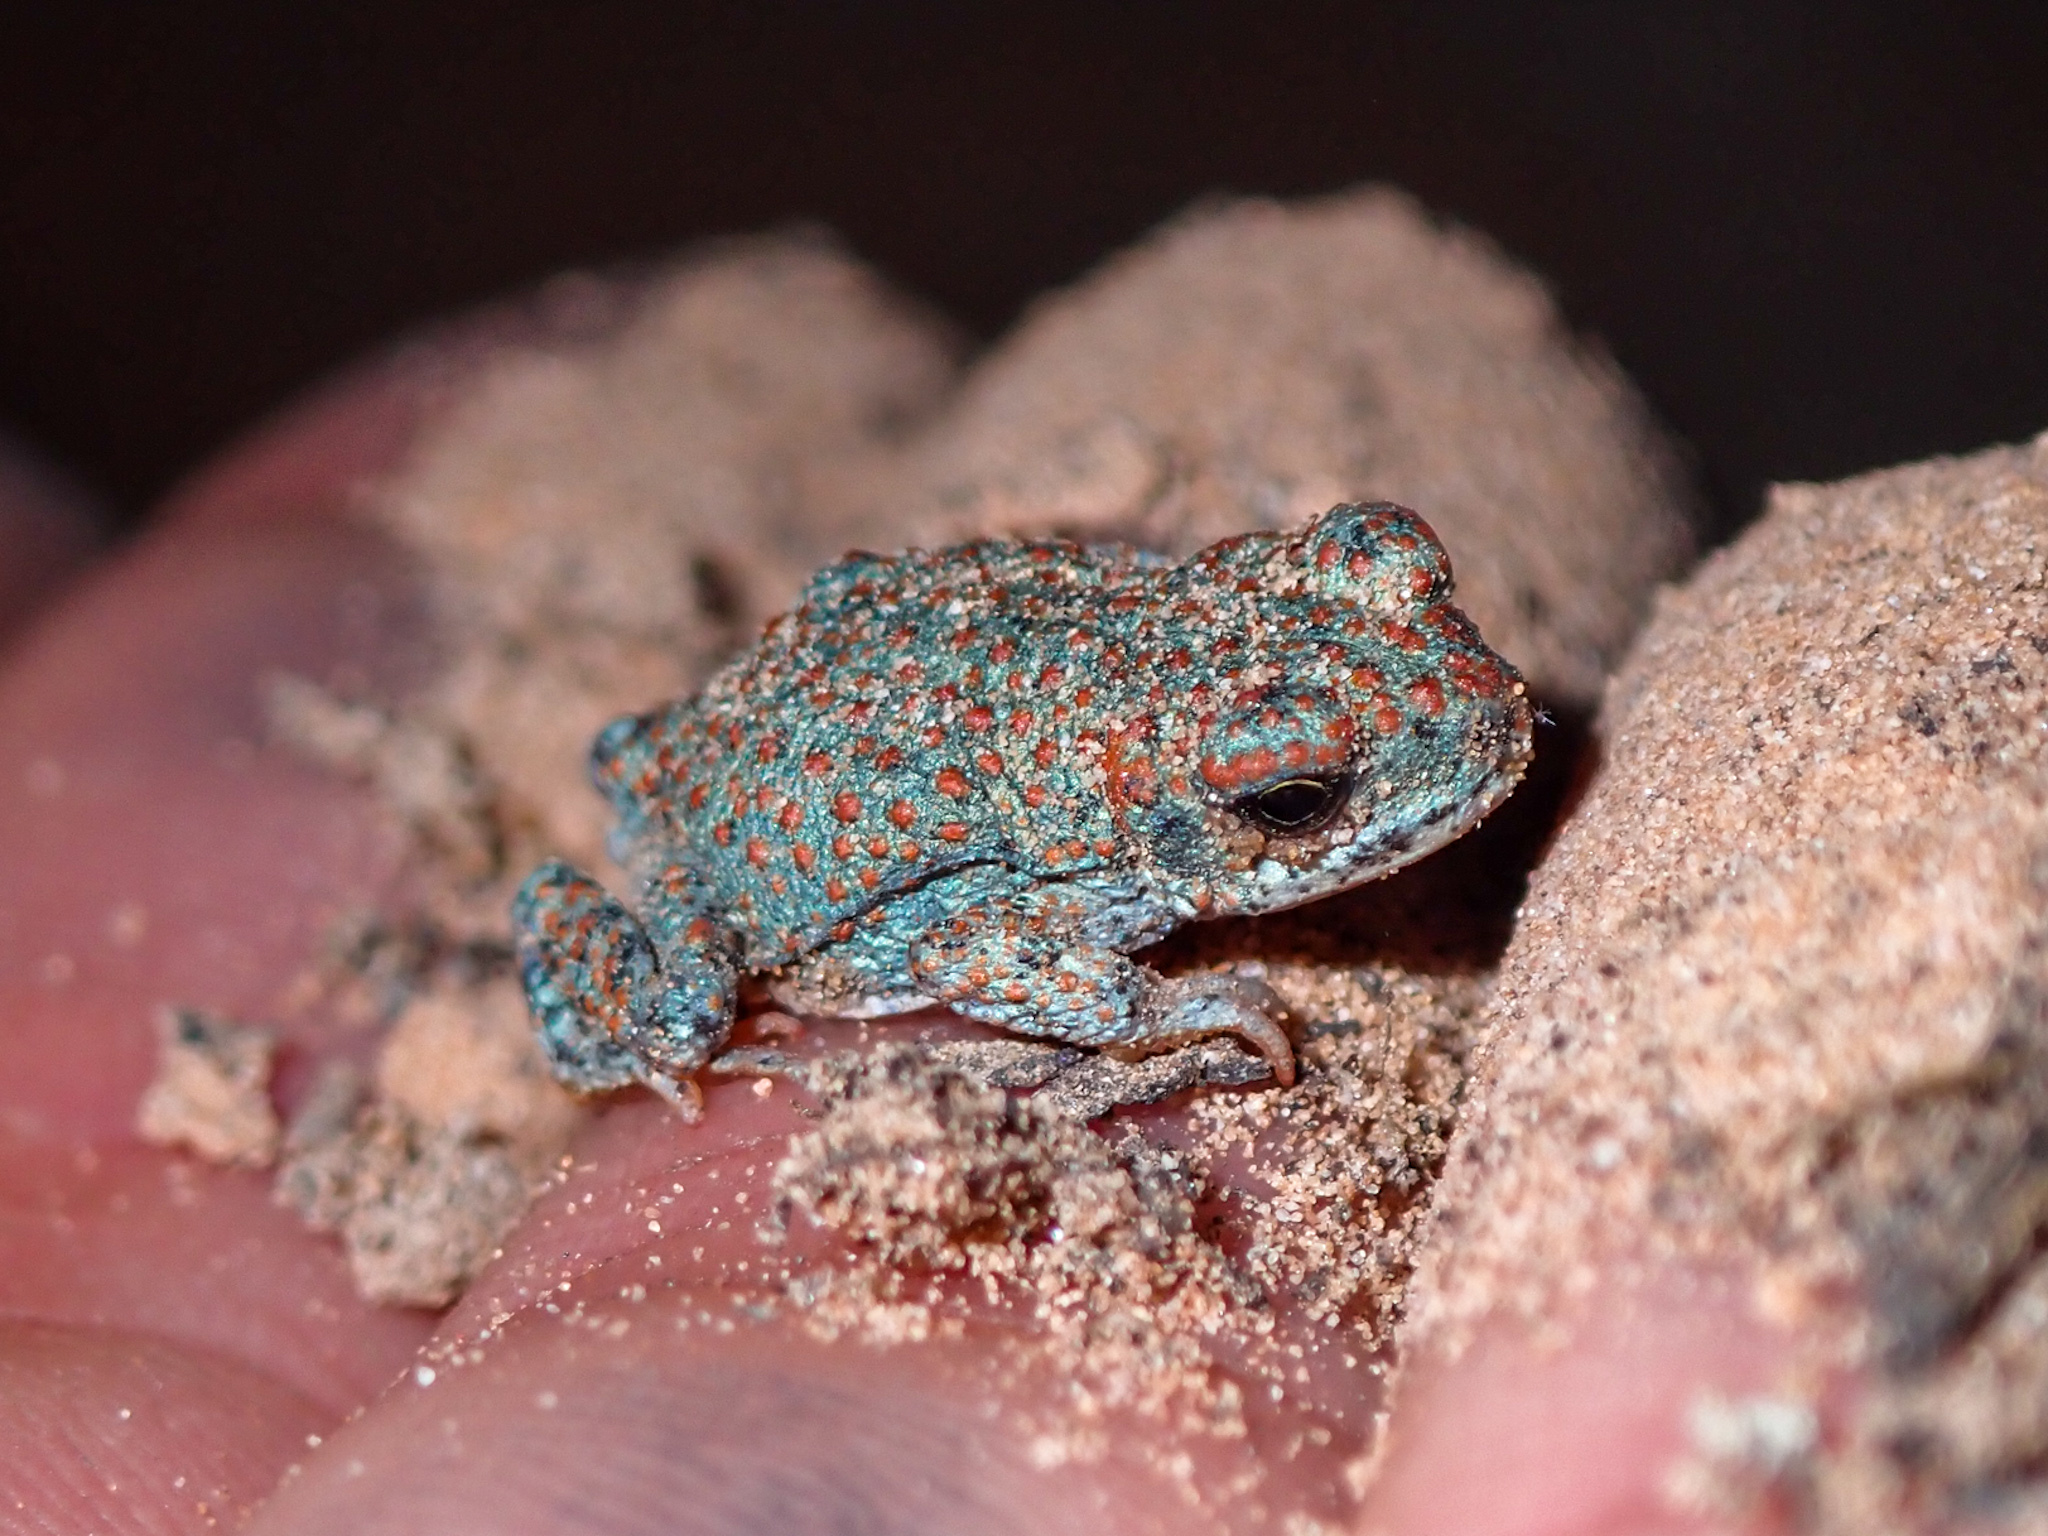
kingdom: Animalia
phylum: Chordata
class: Amphibia
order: Anura
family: Bufonidae
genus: Anaxyrus
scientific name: Anaxyrus punctatus
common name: Red-spotted toad
